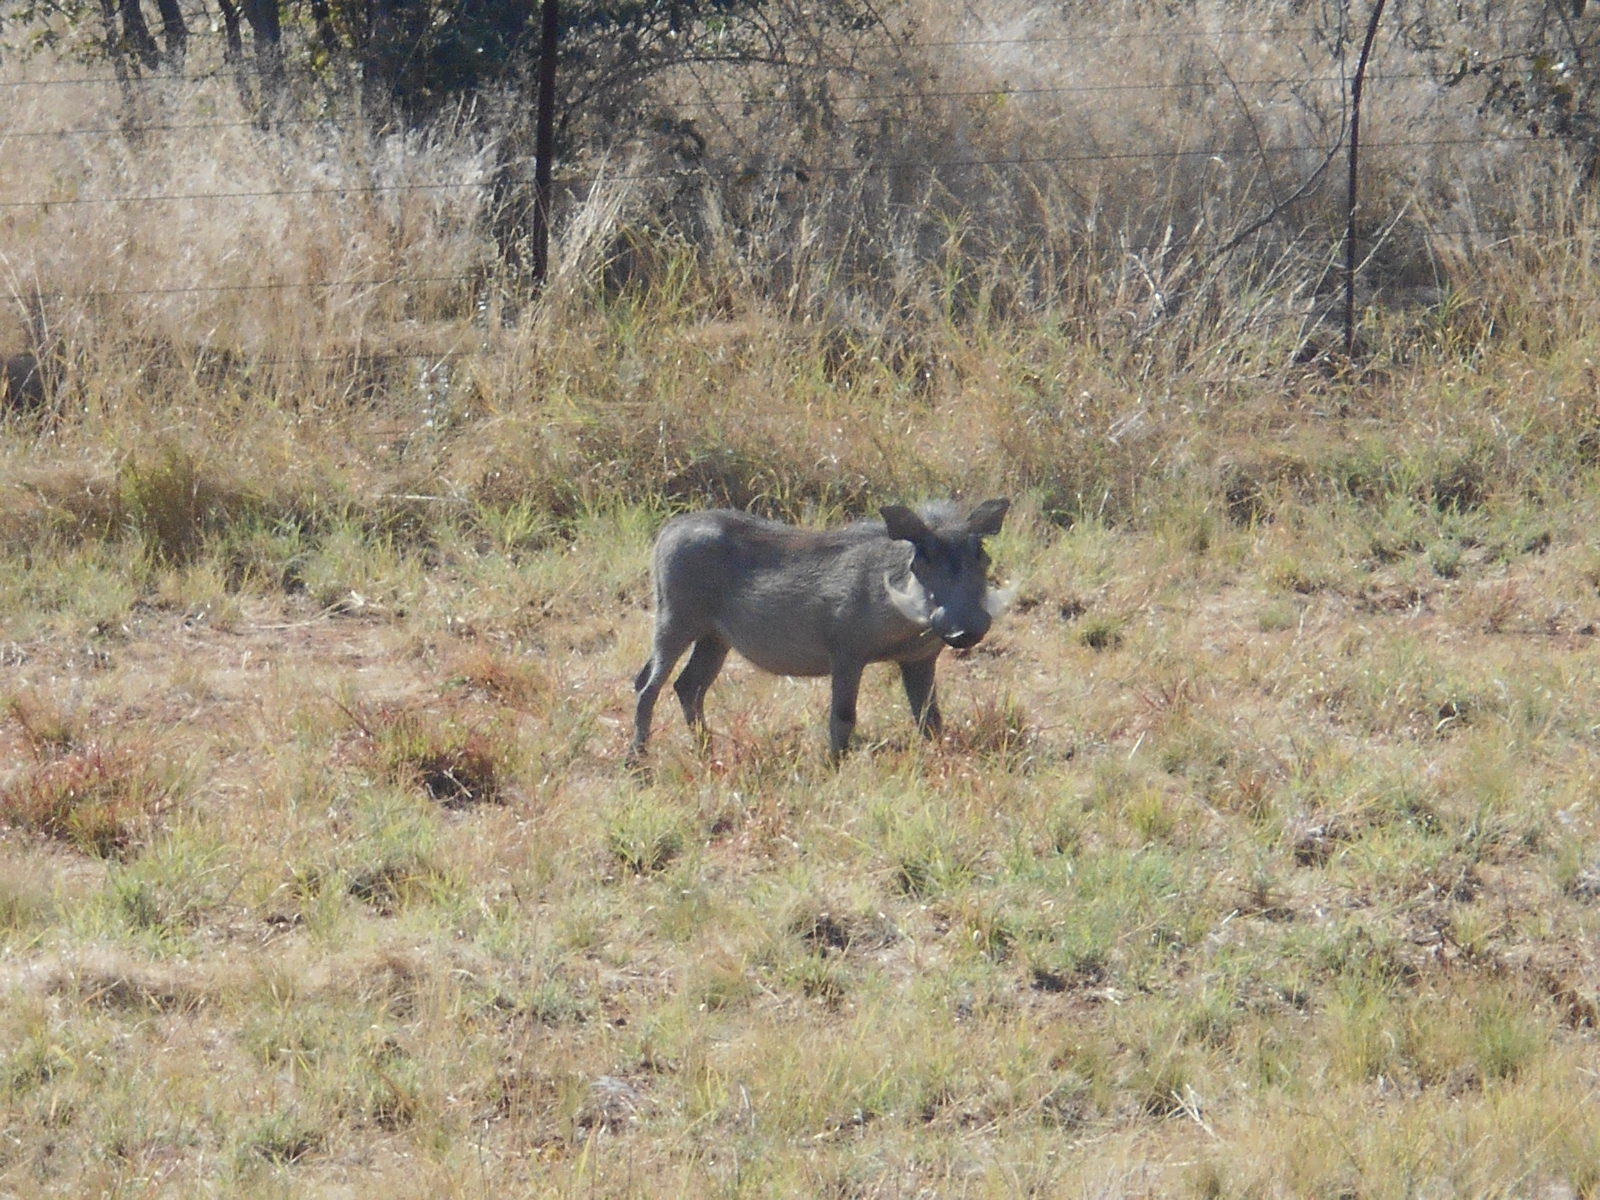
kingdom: Animalia
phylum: Chordata
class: Mammalia
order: Artiodactyla
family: Suidae
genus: Phacochoerus
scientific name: Phacochoerus africanus
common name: Common warthog
